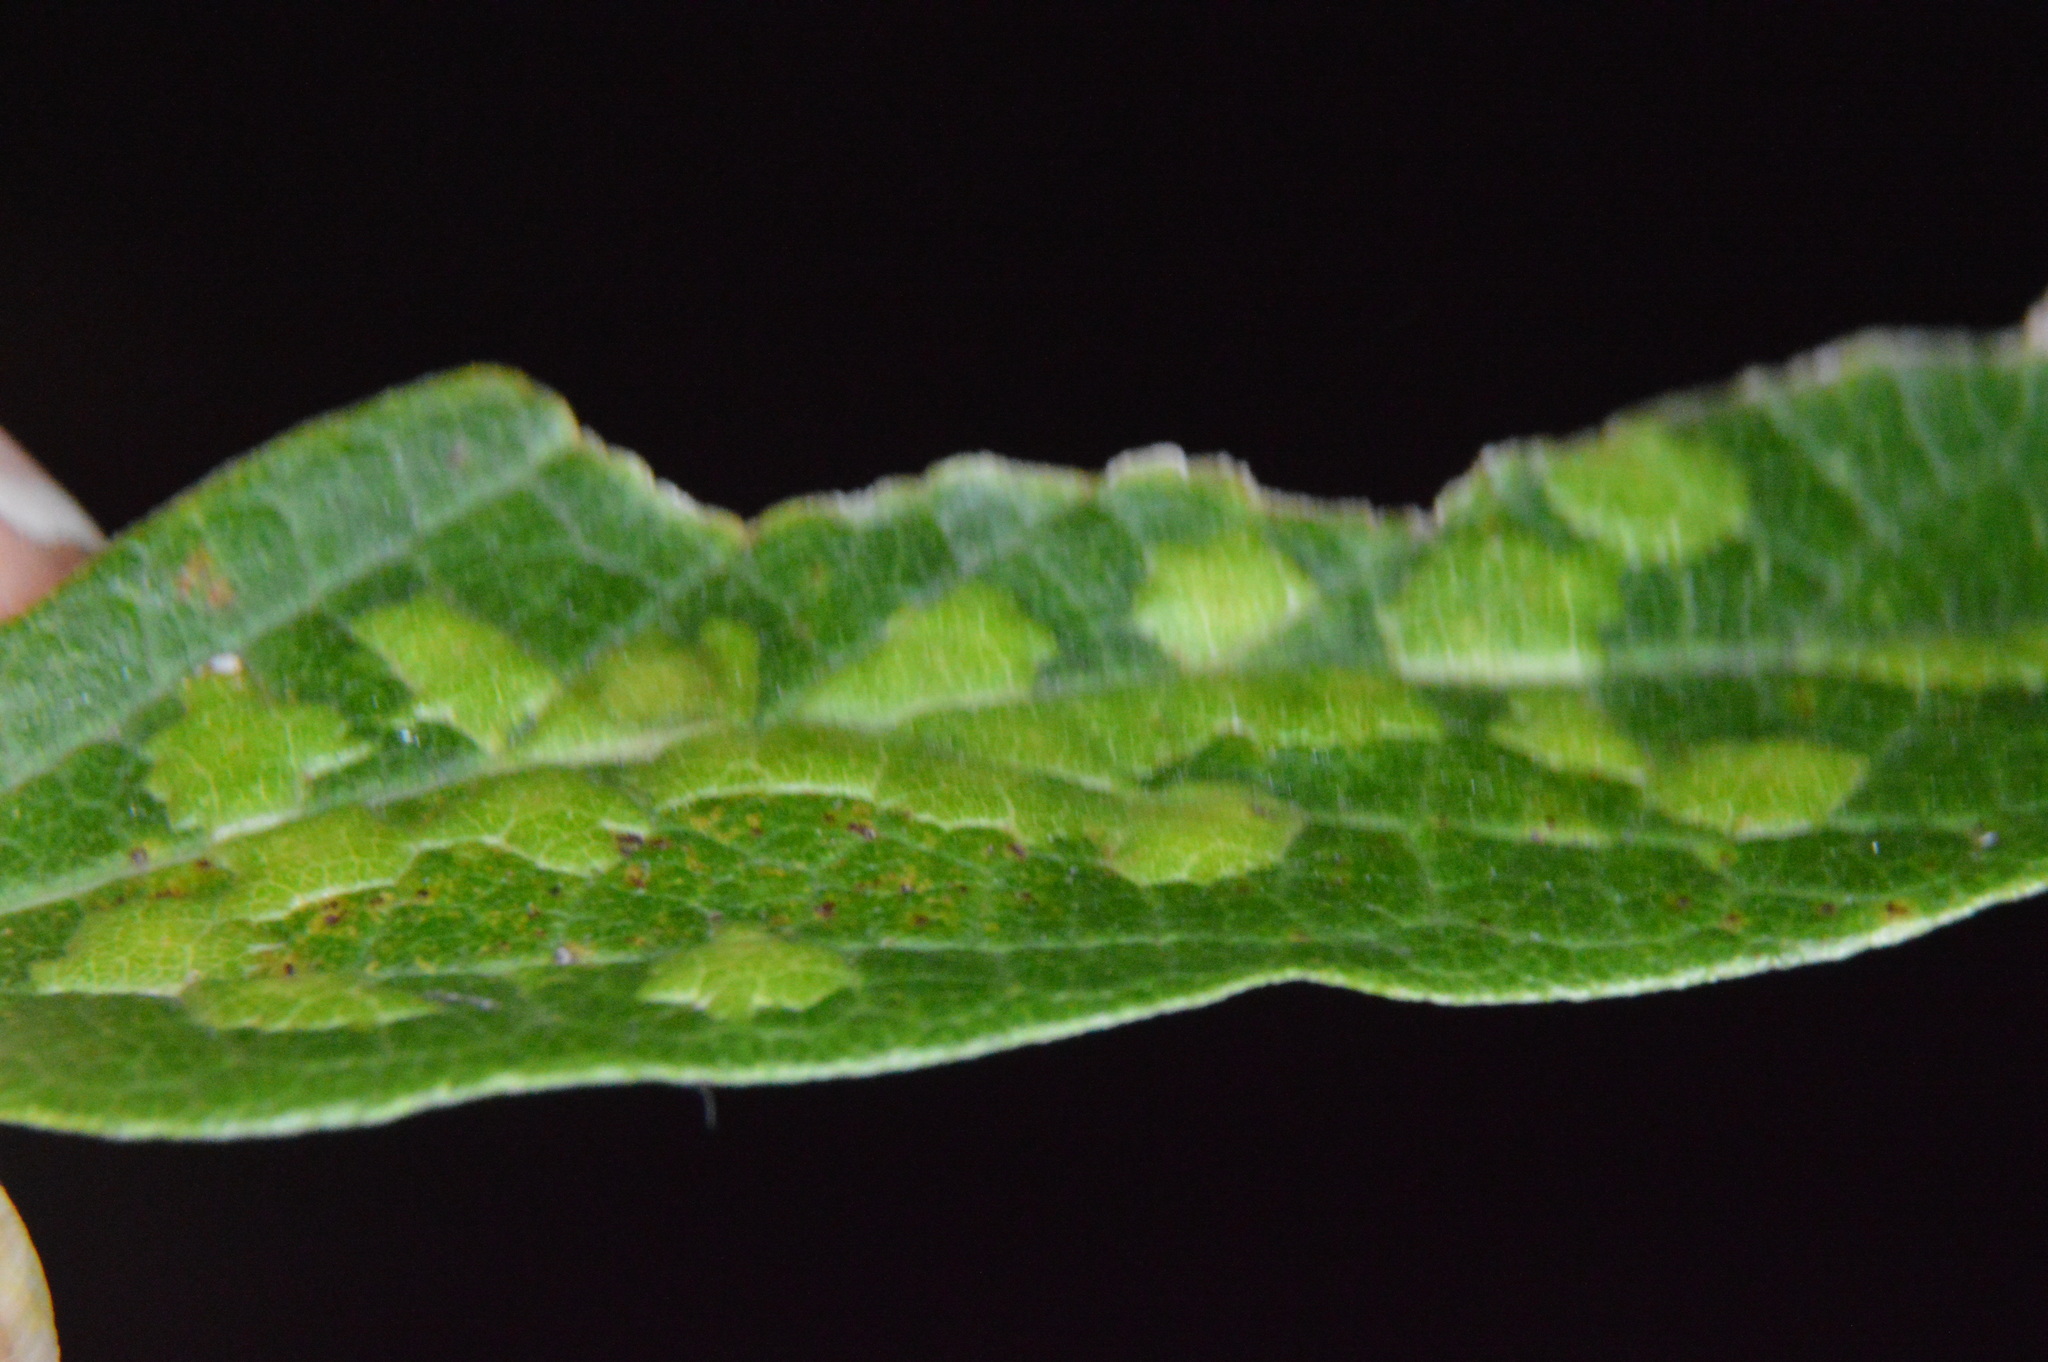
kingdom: Animalia
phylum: Arthropoda
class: Insecta
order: Hemiptera
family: Aphalaridae
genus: Pachypsylla
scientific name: Pachypsylla celtidisvesicula
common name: Hackberry blister gall psyllid
